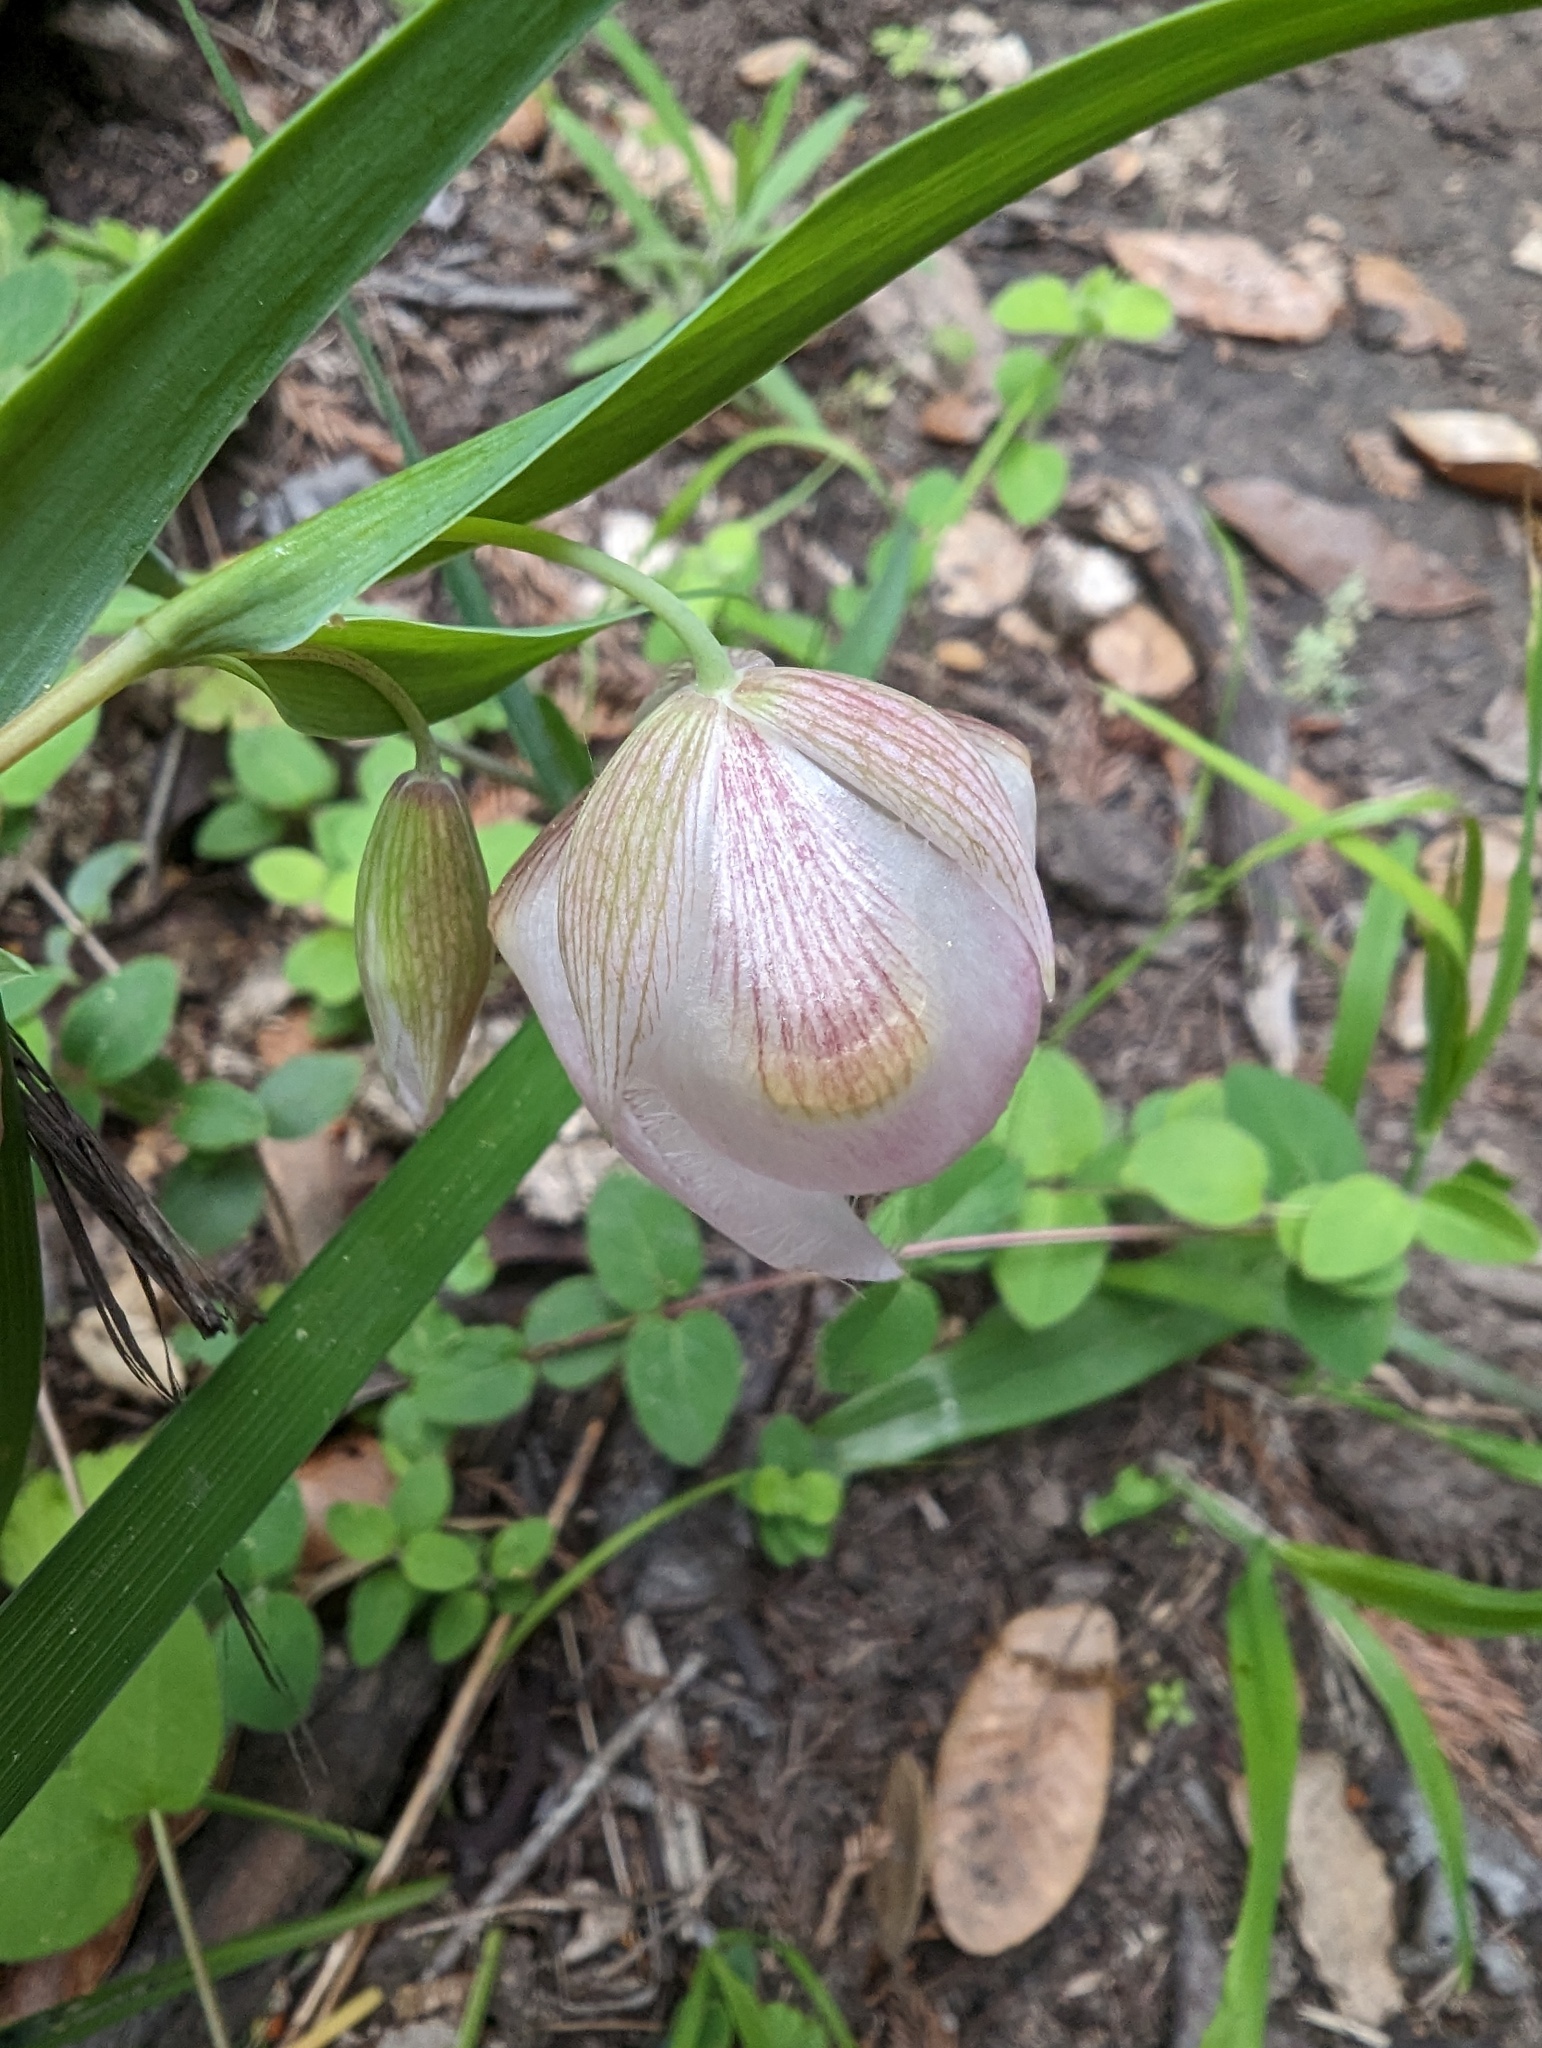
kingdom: Plantae
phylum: Tracheophyta
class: Liliopsida
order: Liliales
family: Liliaceae
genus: Calochortus
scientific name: Calochortus albus
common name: Fairy-lantern
